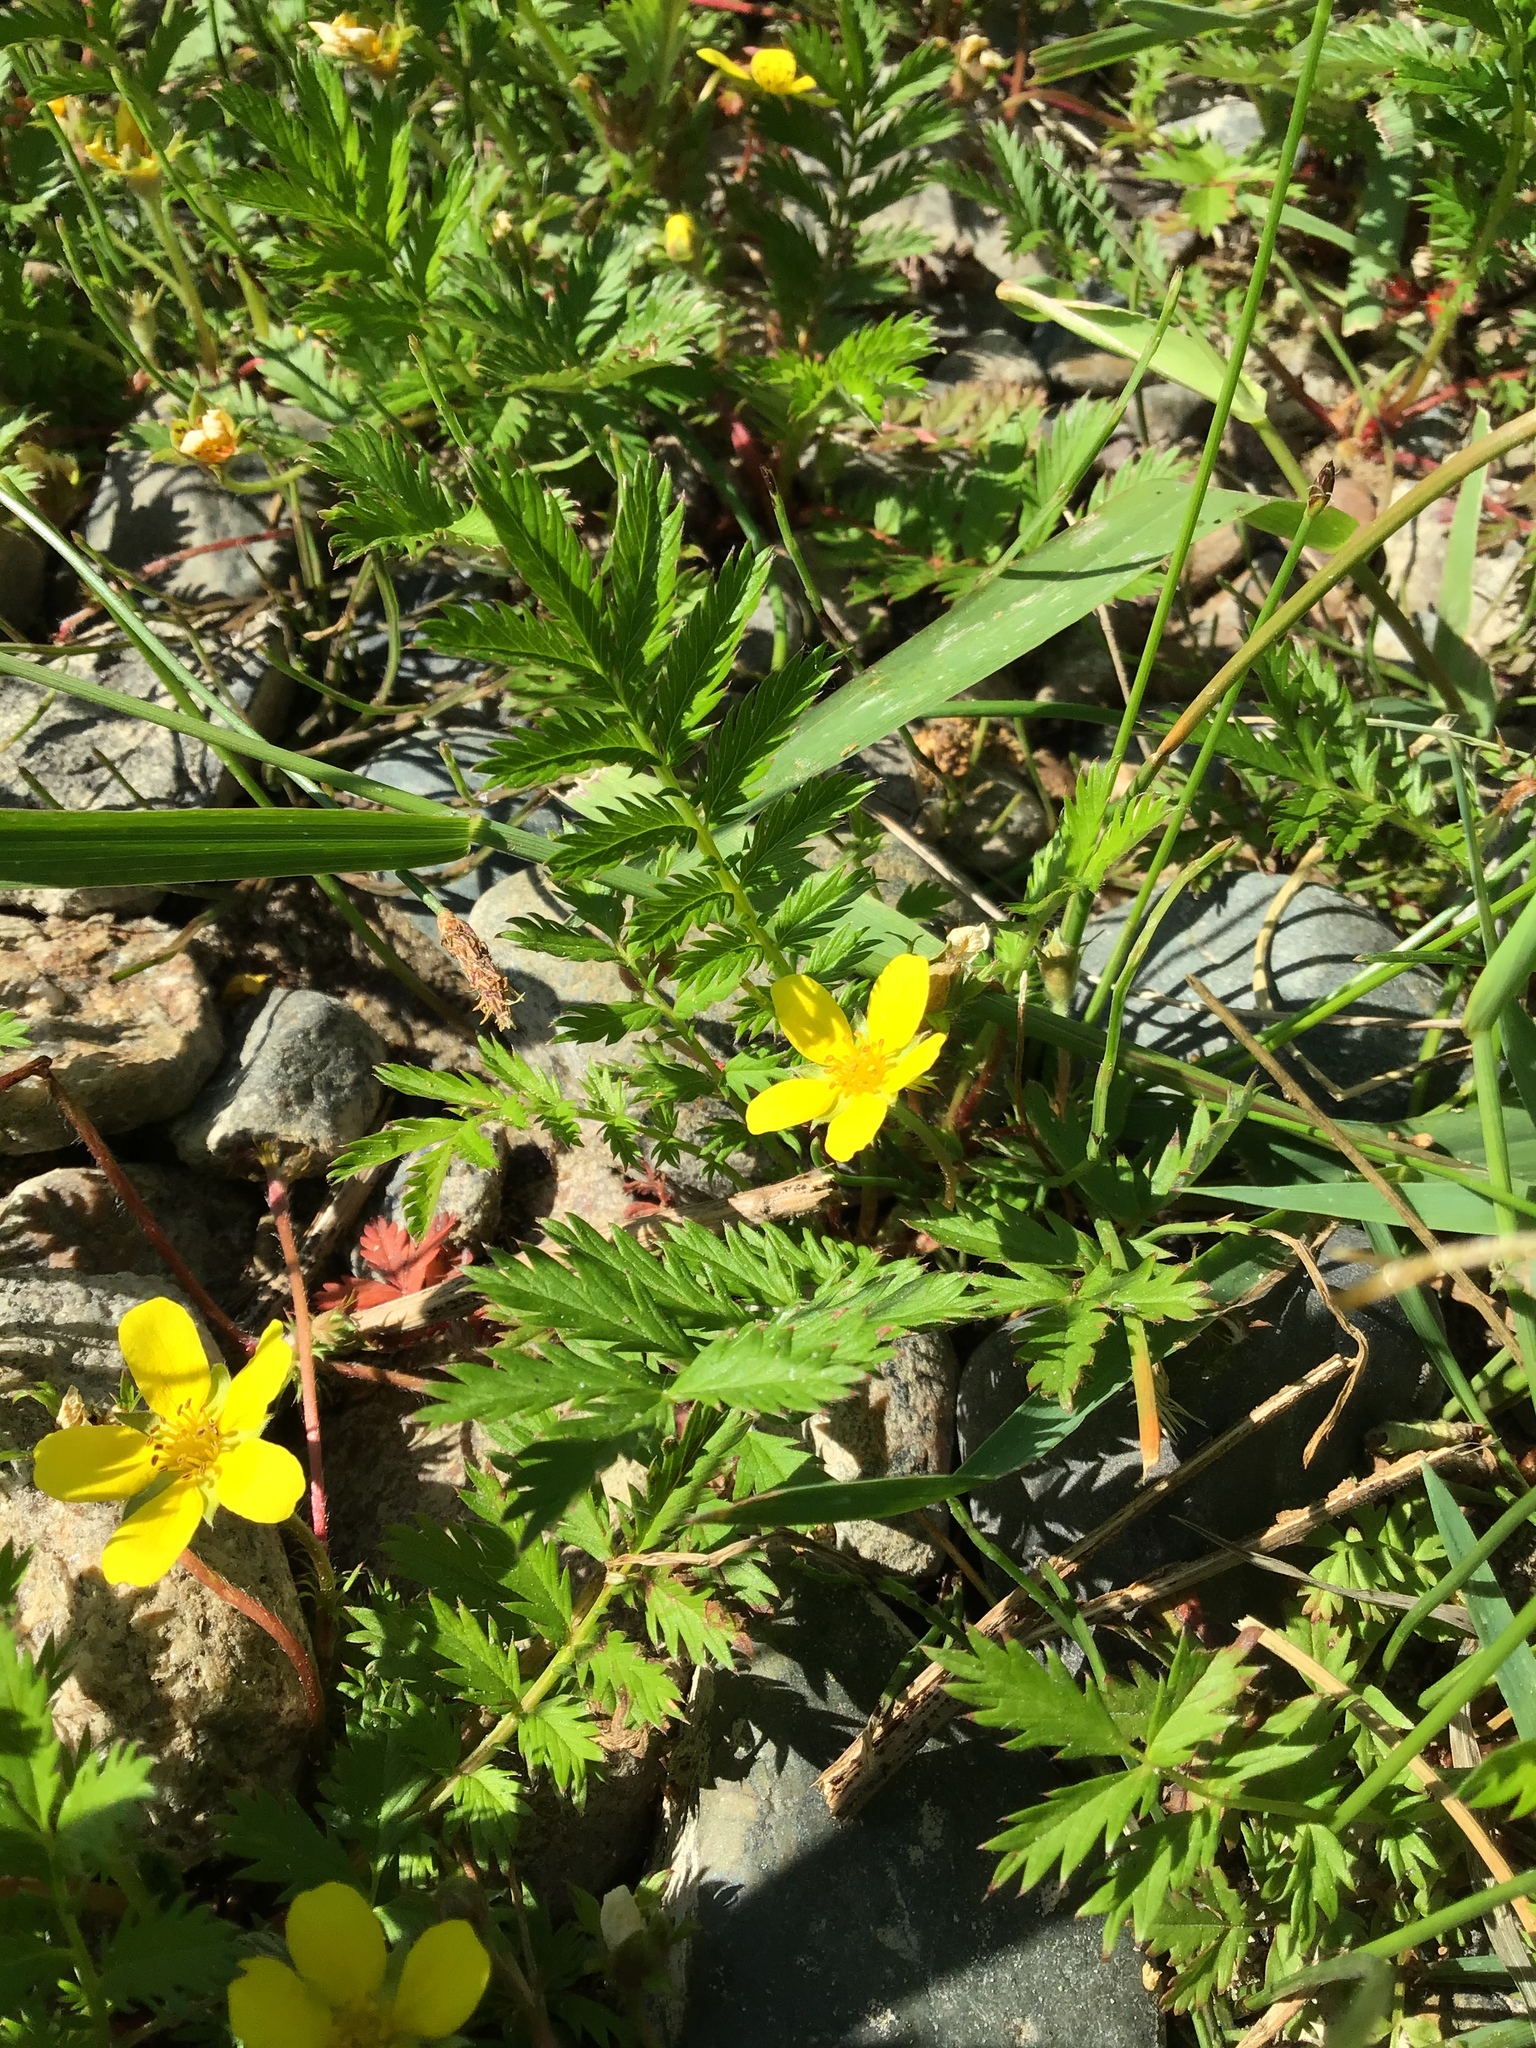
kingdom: Plantae
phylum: Tracheophyta
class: Magnoliopsida
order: Rosales
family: Rosaceae
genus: Argentina
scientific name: Argentina anserina
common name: Common silverweed
